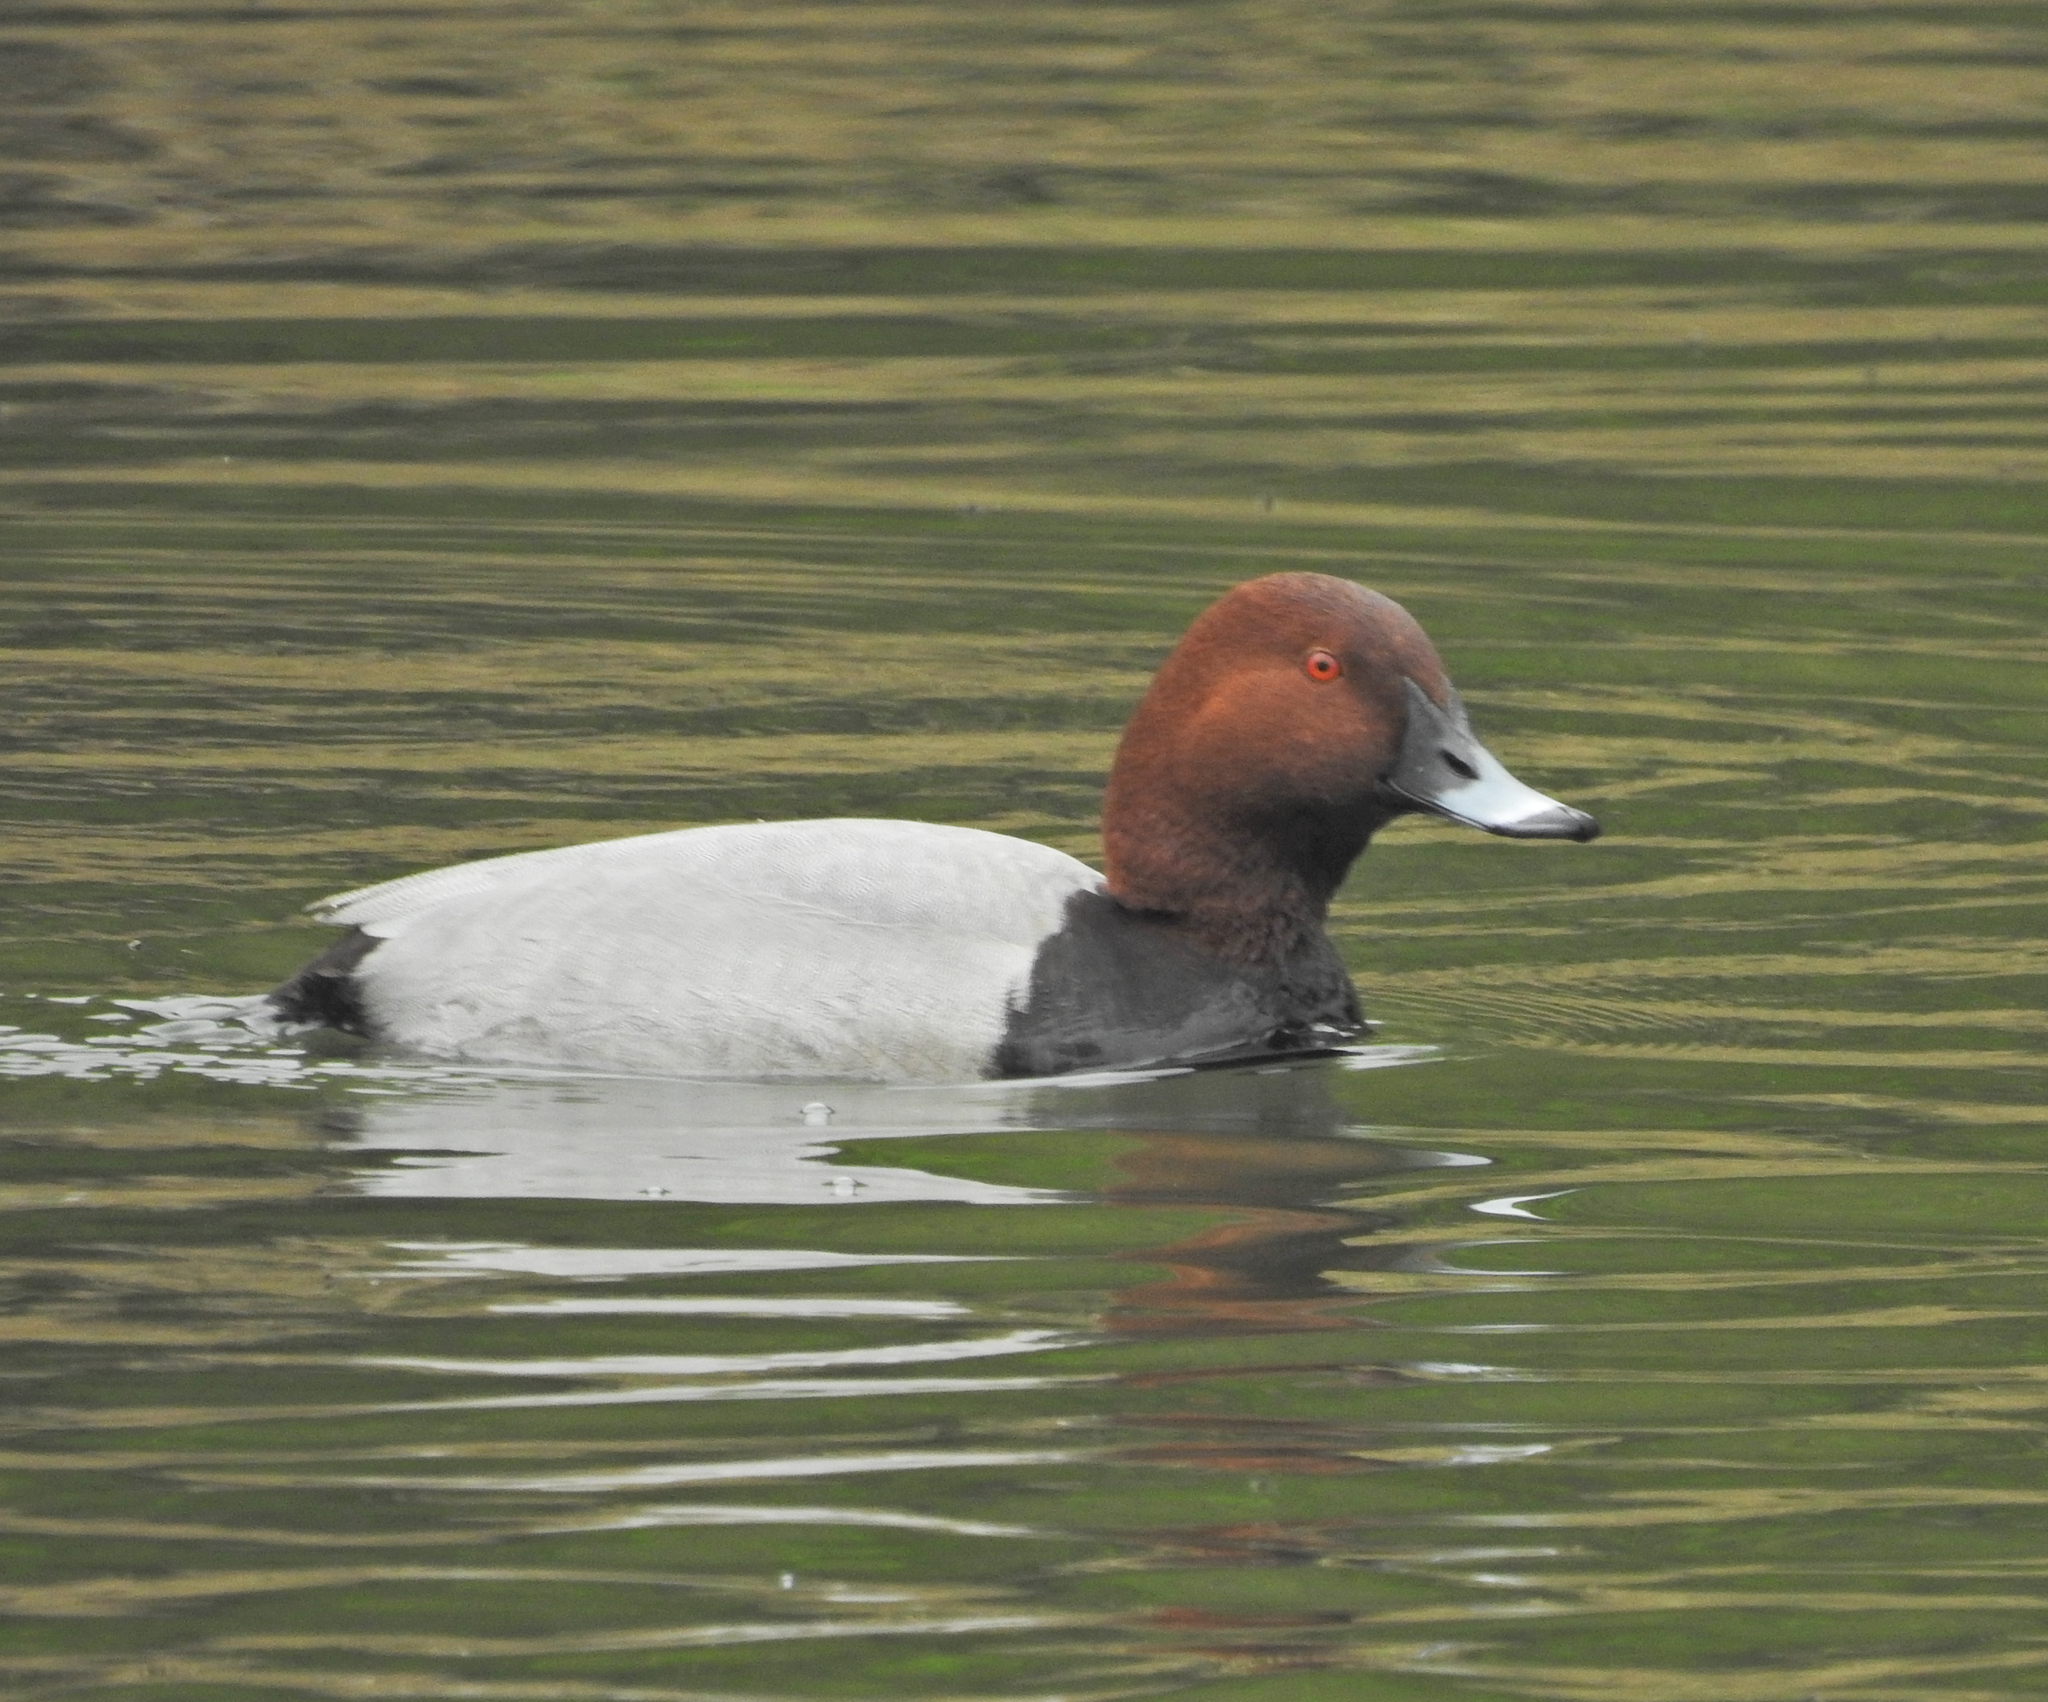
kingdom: Animalia
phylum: Chordata
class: Aves
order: Anseriformes
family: Anatidae
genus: Aythya
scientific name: Aythya ferina
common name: Common pochard
